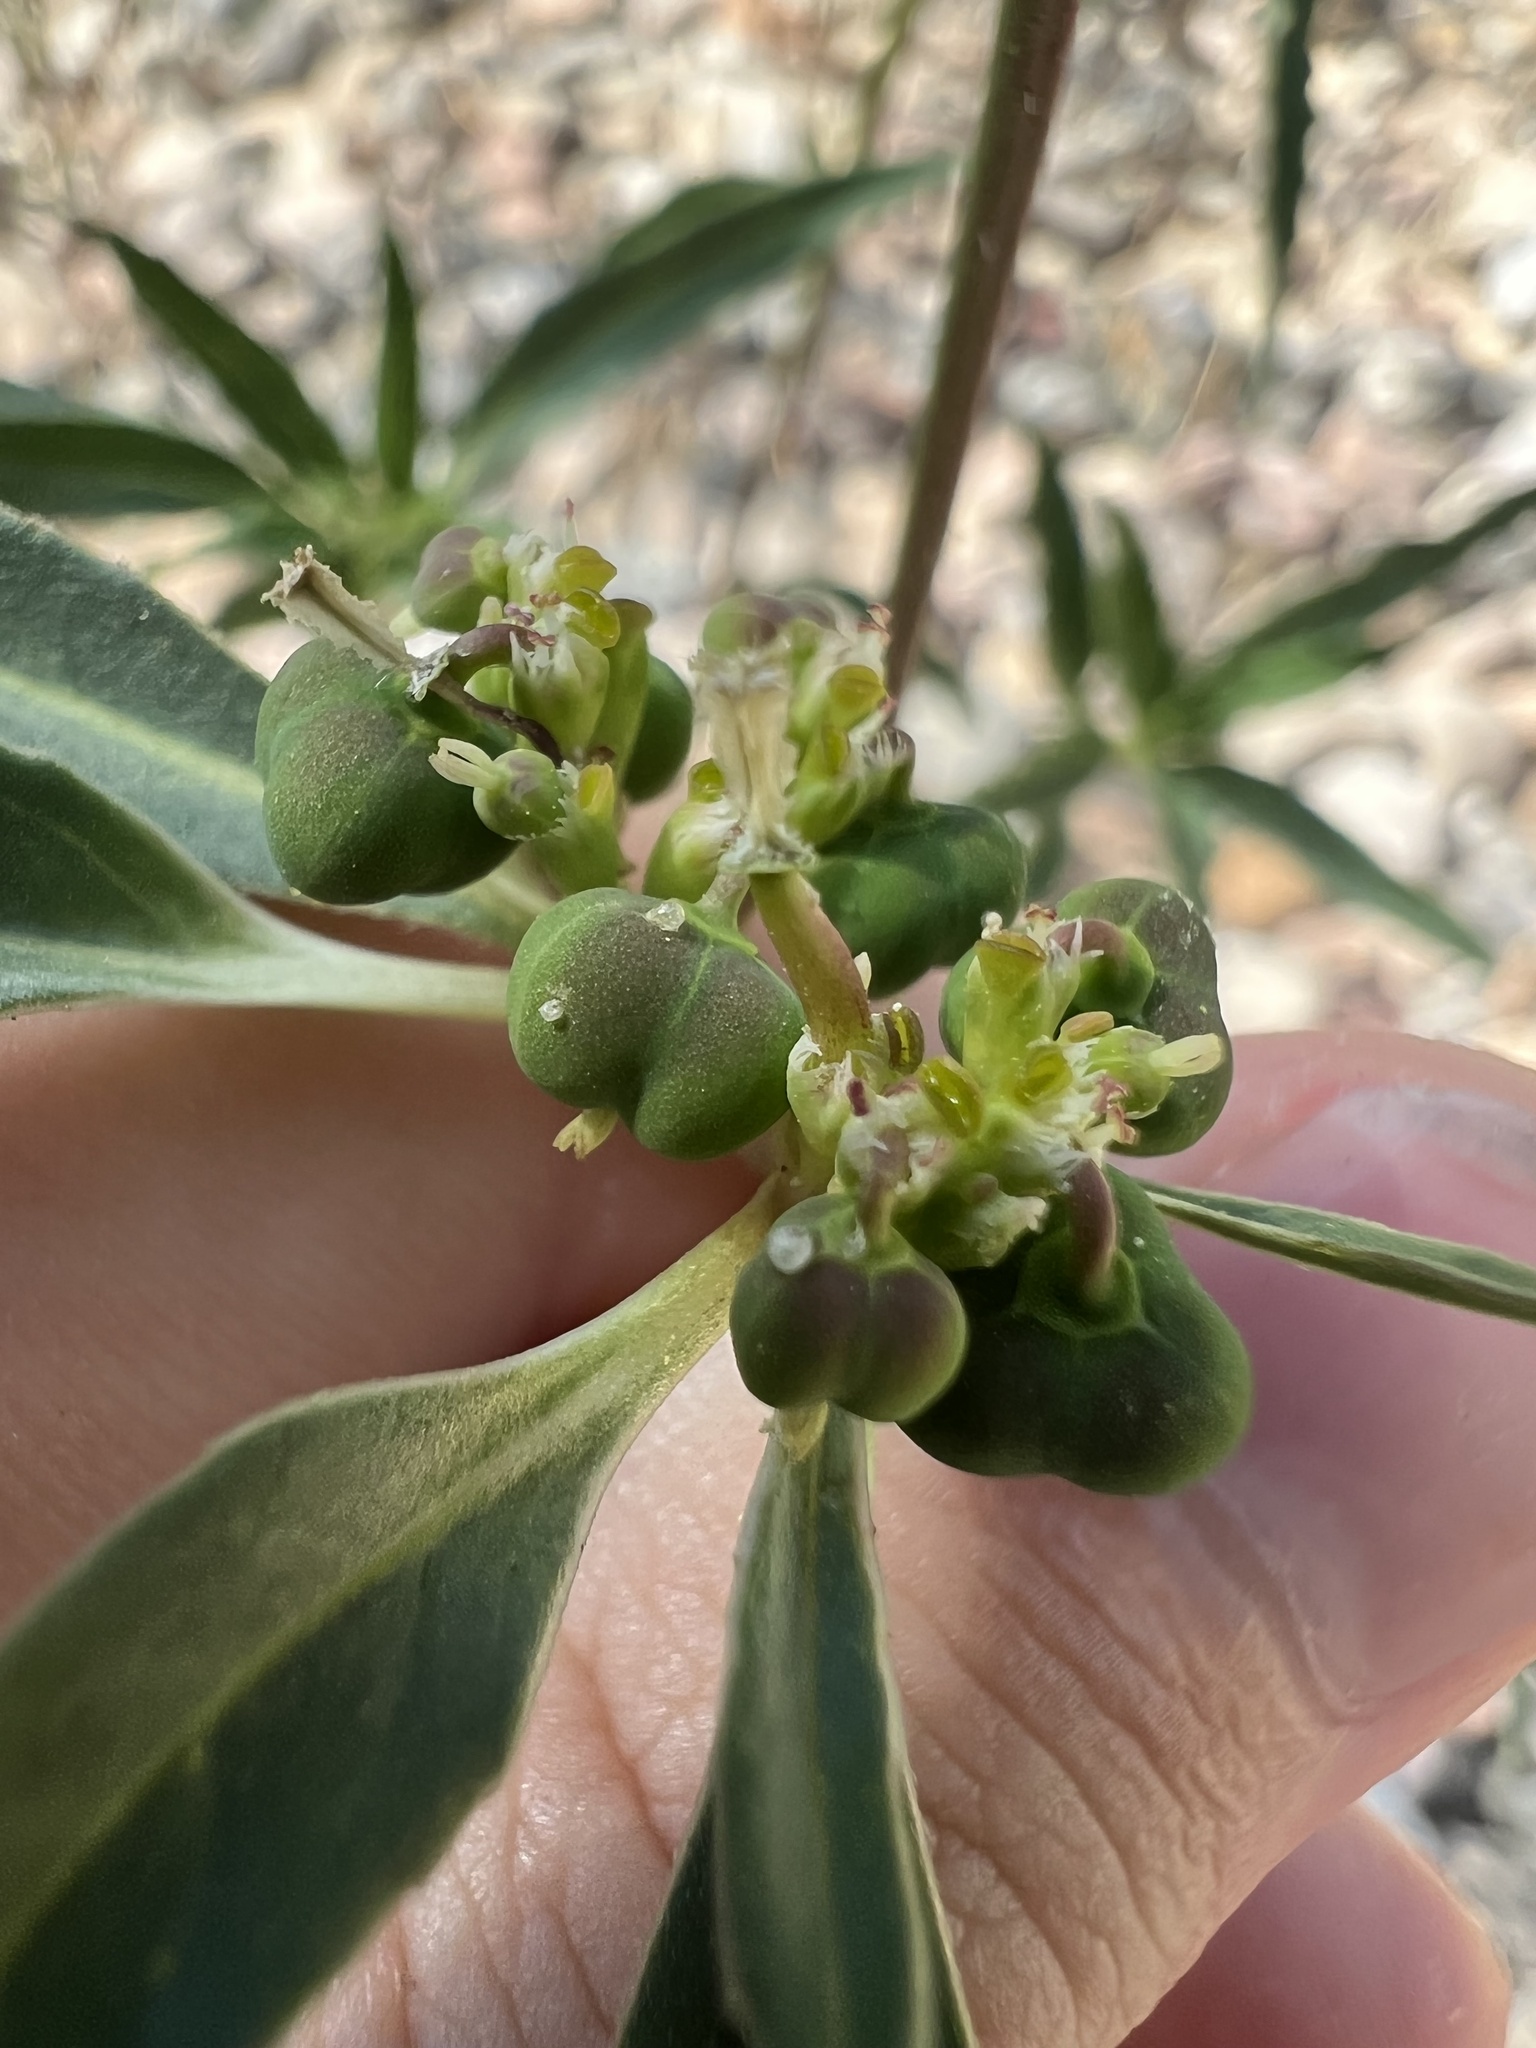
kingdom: Plantae
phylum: Tracheophyta
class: Magnoliopsida
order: Malpighiales
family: Euphorbiaceae
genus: Euphorbia
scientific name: Euphorbia davidii
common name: David's spurge
